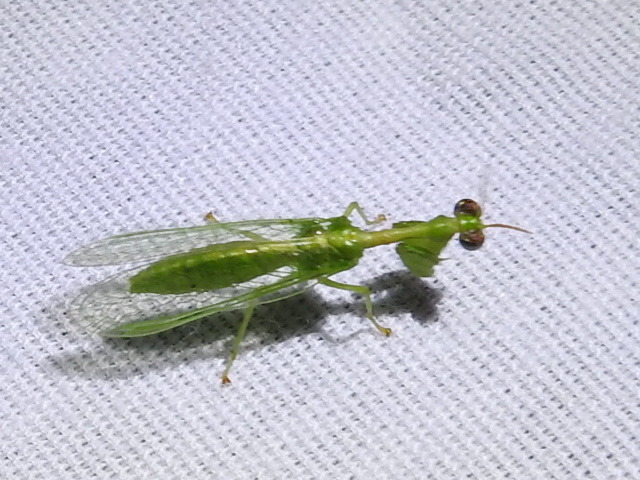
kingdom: Animalia
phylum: Arthropoda
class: Insecta
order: Neuroptera
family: Mantispidae
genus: Zeugomantispa
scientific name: Zeugomantispa minuta
